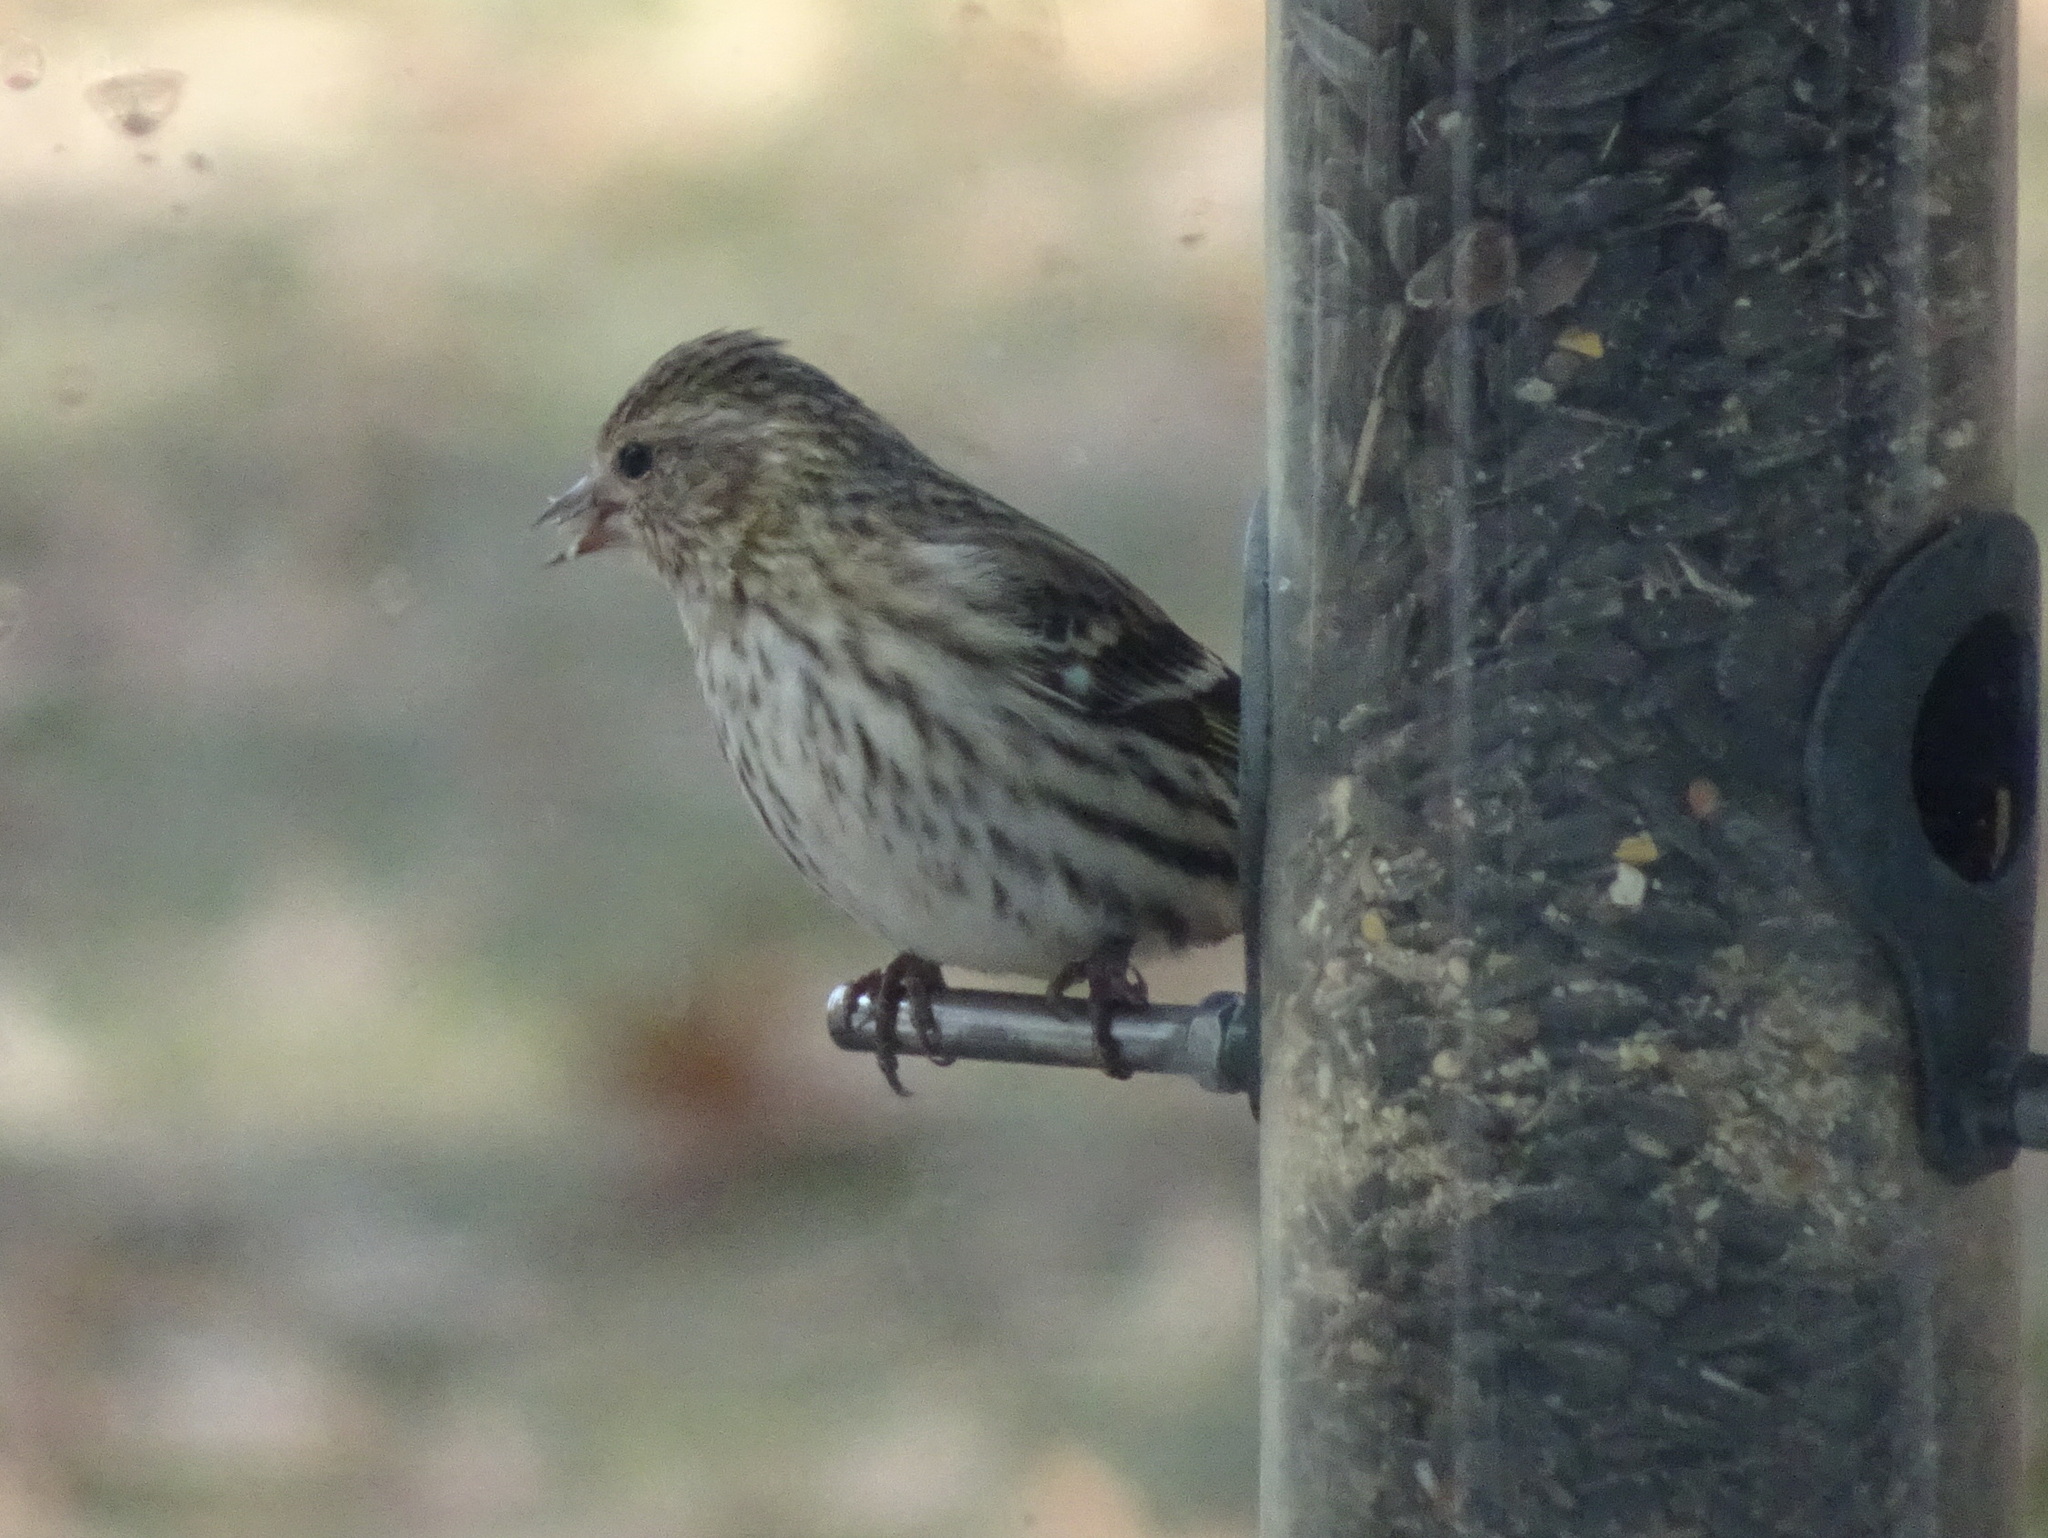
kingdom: Animalia
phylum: Chordata
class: Aves
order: Passeriformes
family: Fringillidae
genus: Spinus
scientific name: Spinus pinus
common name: Pine siskin
